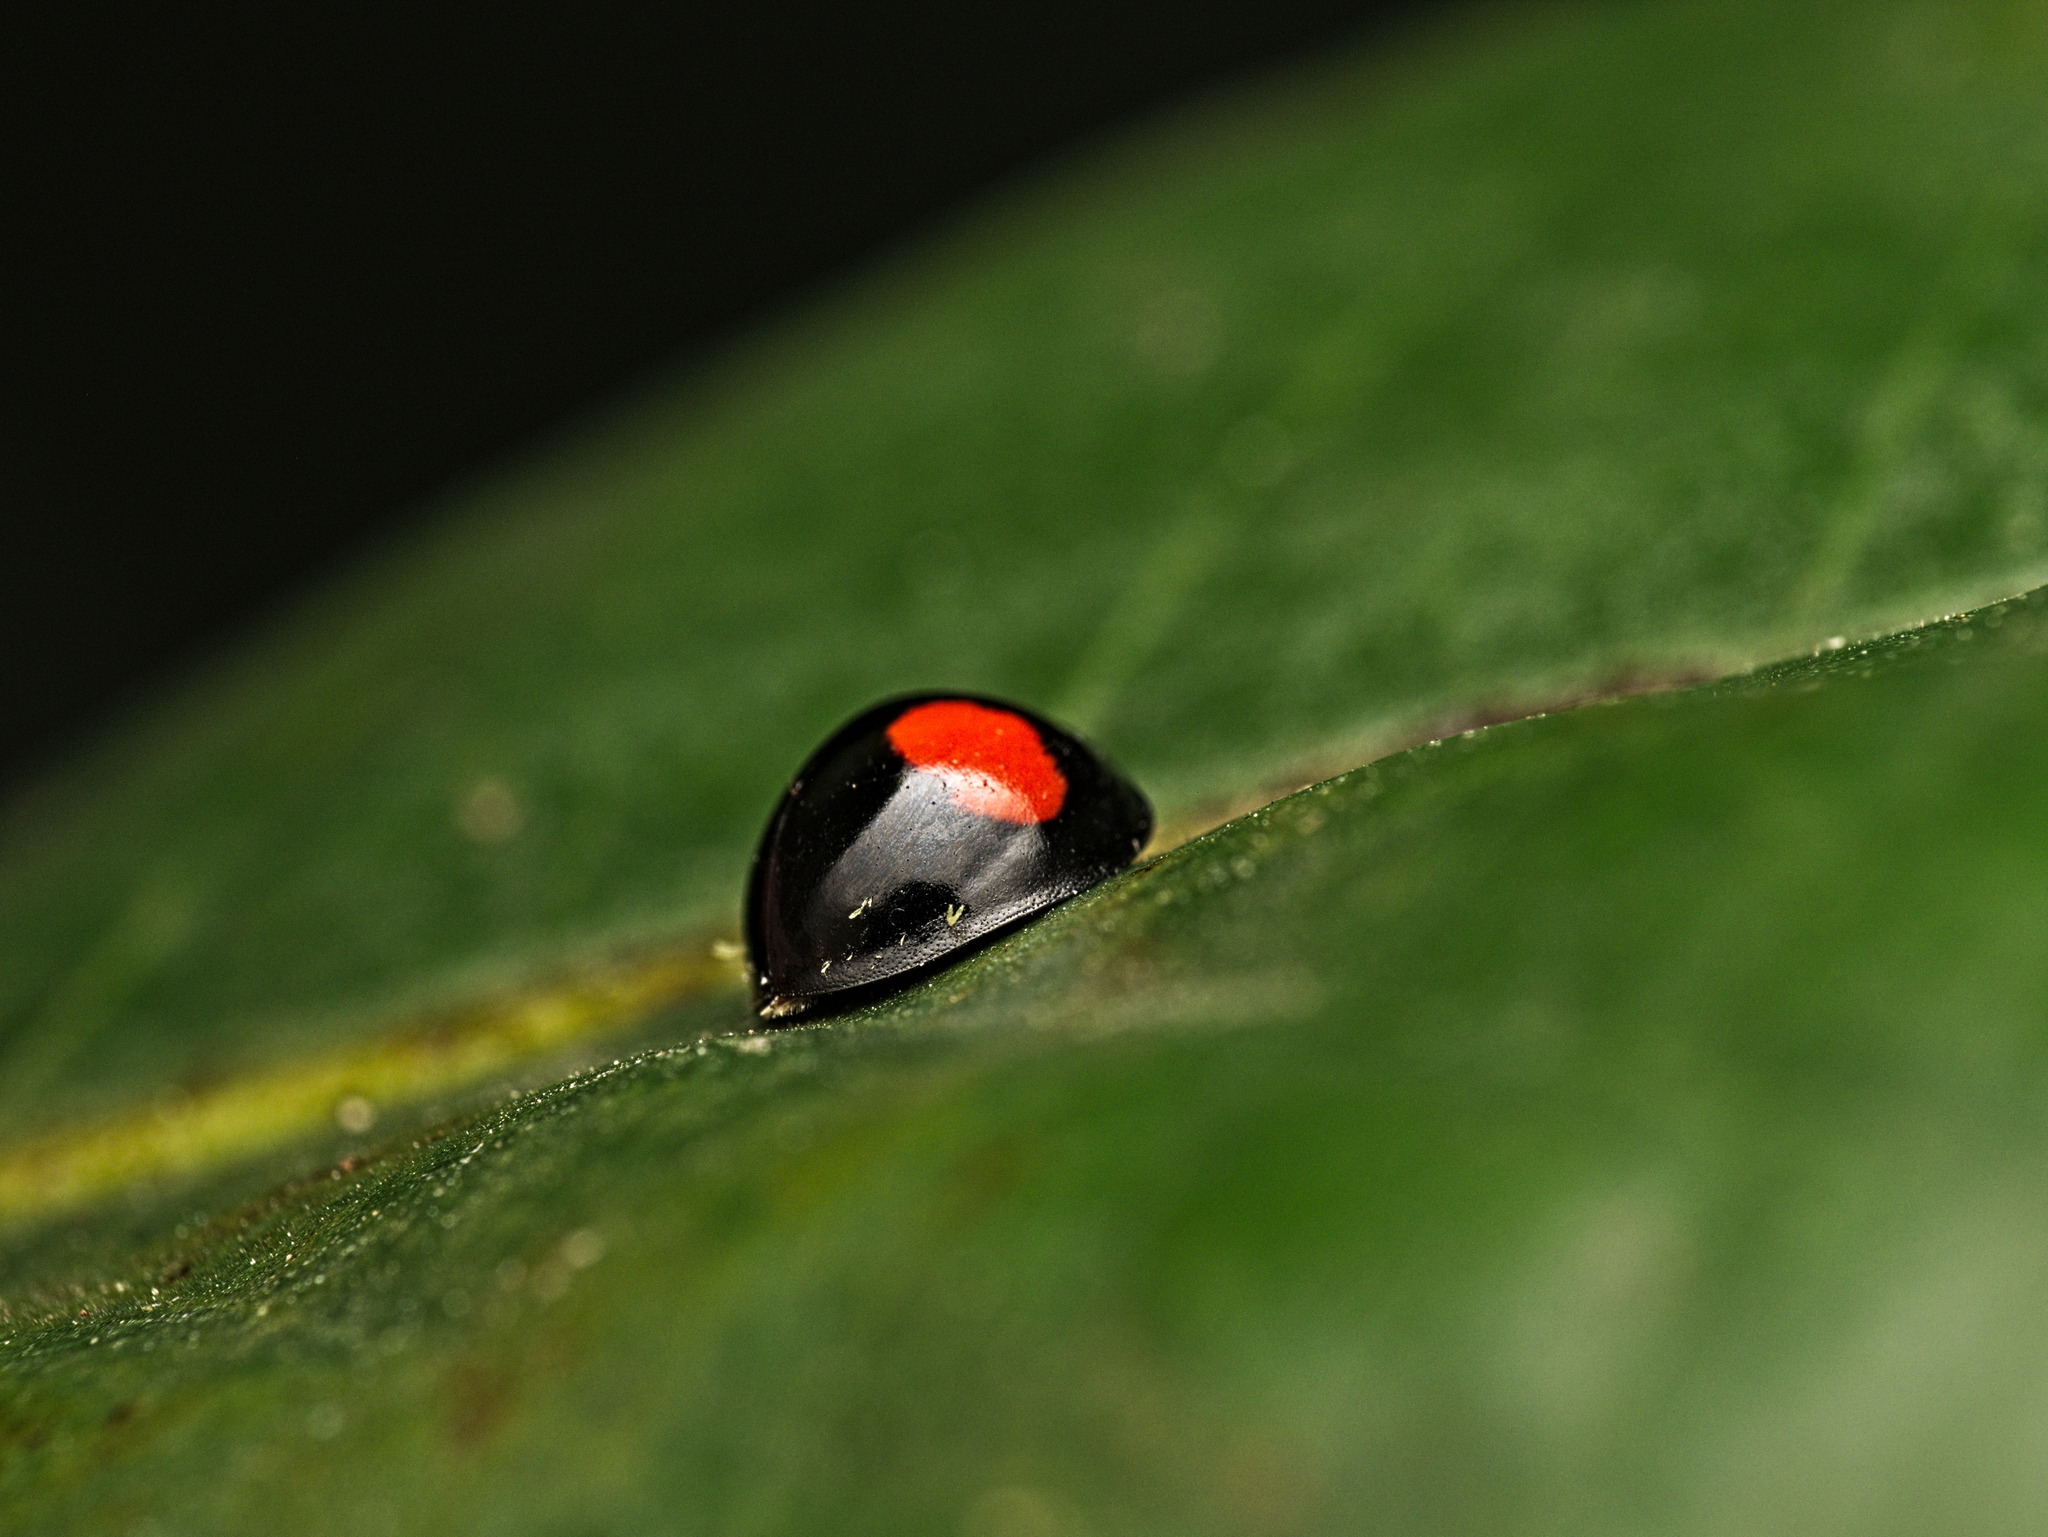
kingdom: Animalia
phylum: Arthropoda
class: Insecta
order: Coleoptera
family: Coccinellidae
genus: Chilocorus
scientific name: Chilocorus cacti
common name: Cactus lady beetle
